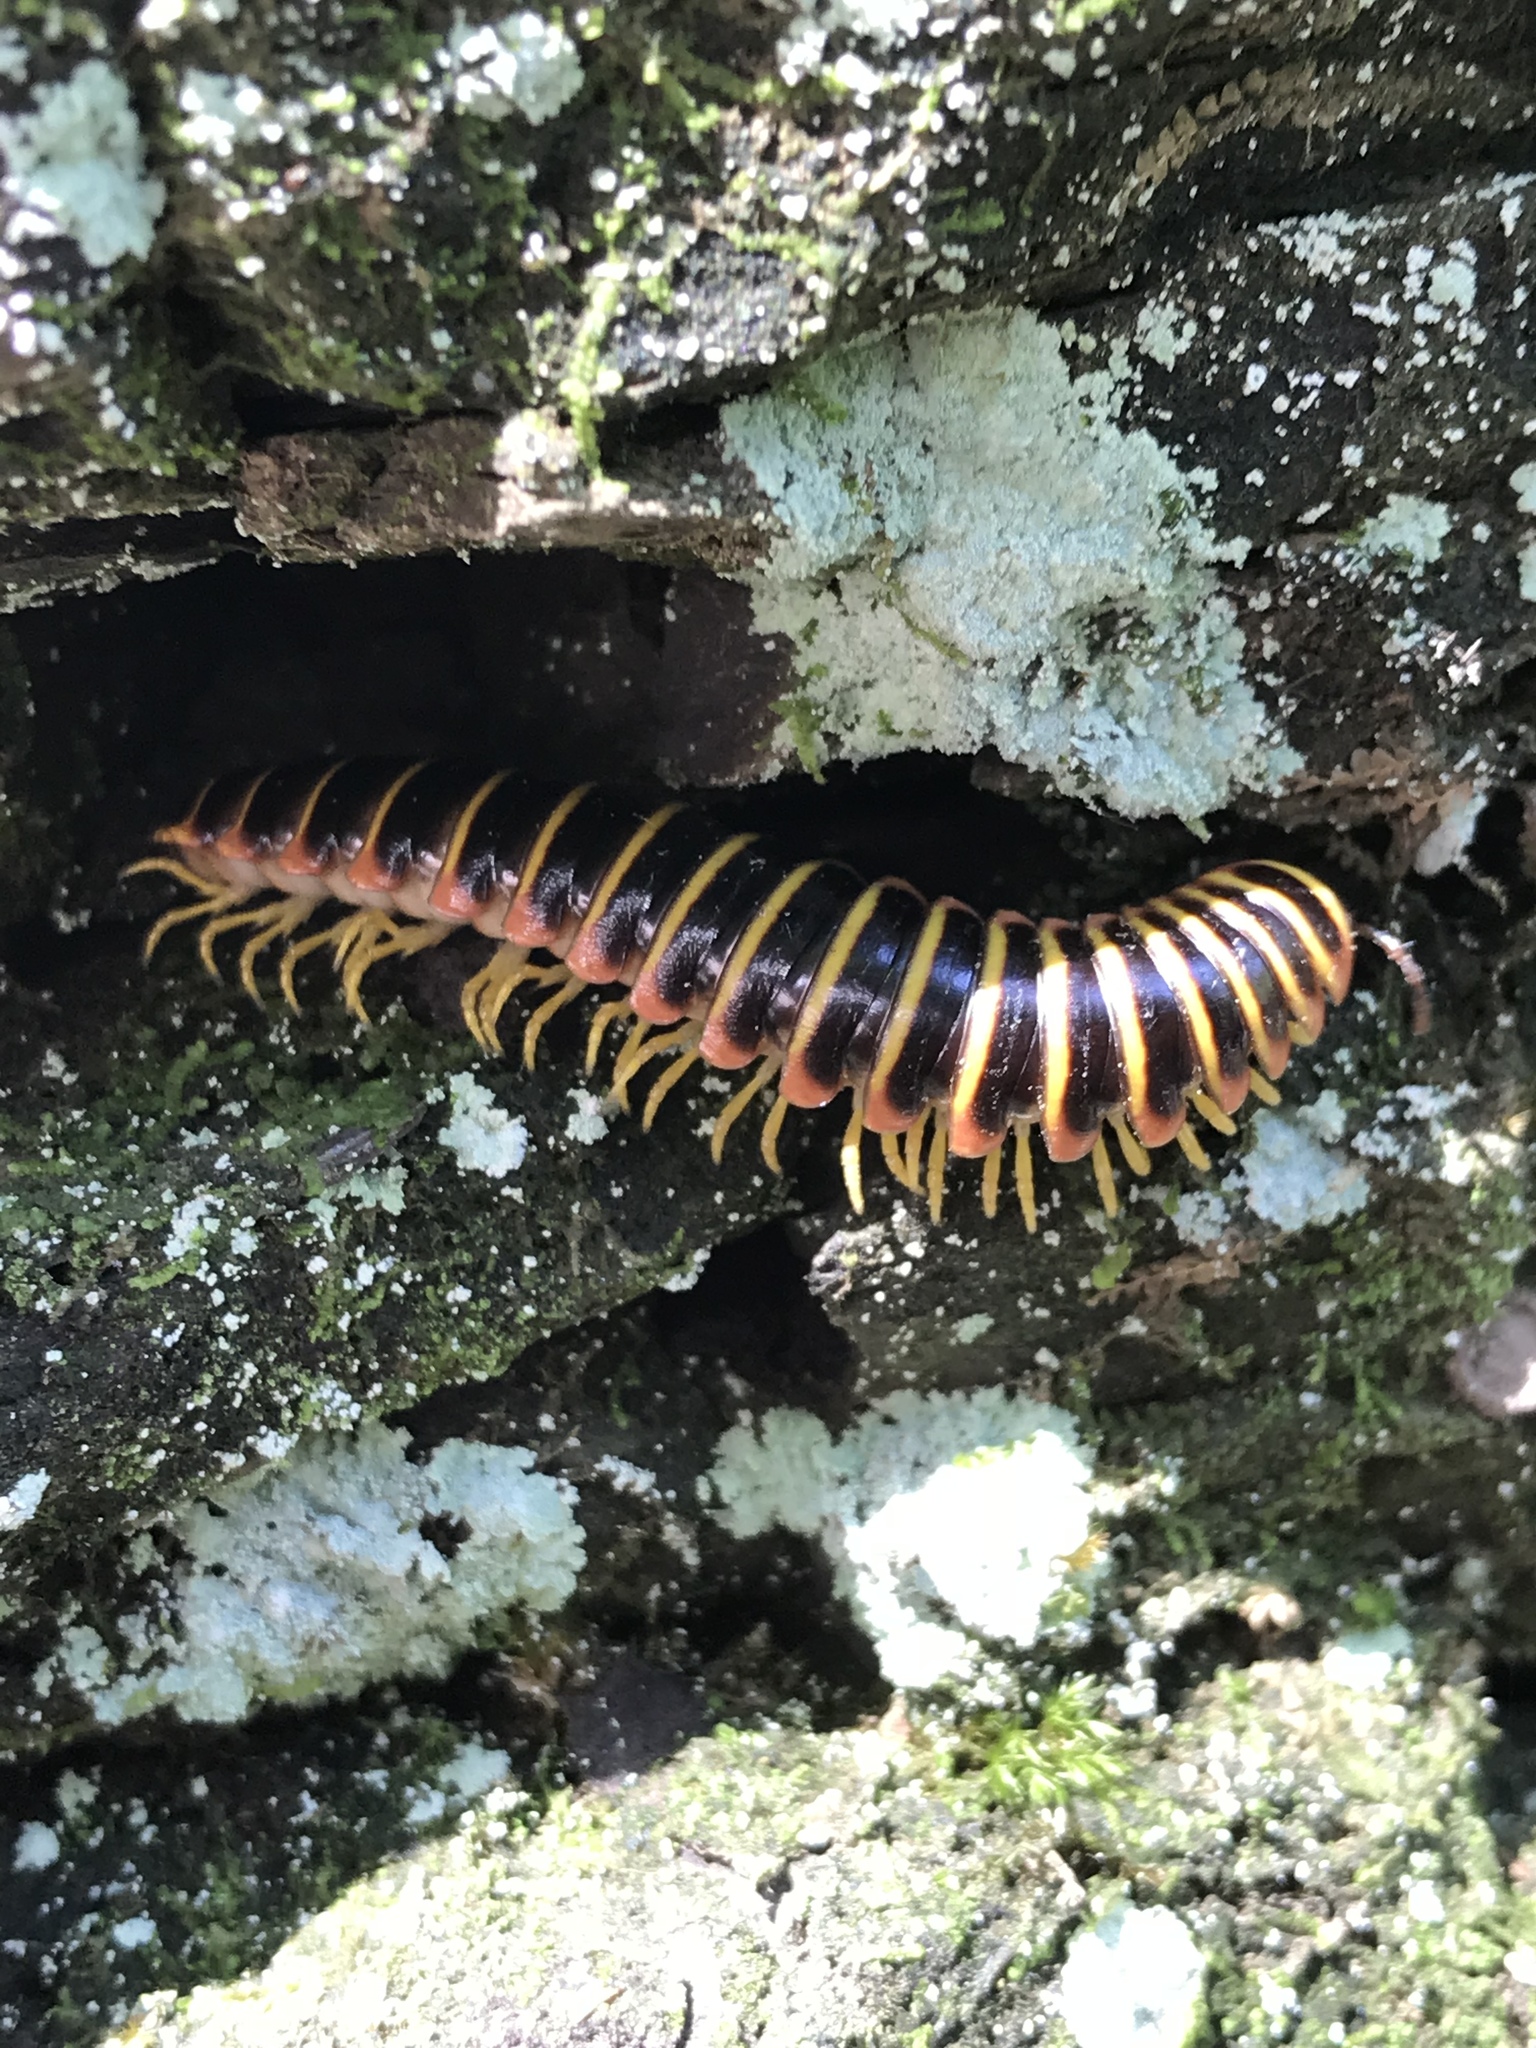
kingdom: Animalia
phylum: Arthropoda
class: Diplopoda
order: Polydesmida
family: Xystodesmidae
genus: Apheloria
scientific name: Apheloria virginiensis
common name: Black-and-gold flat millipede
